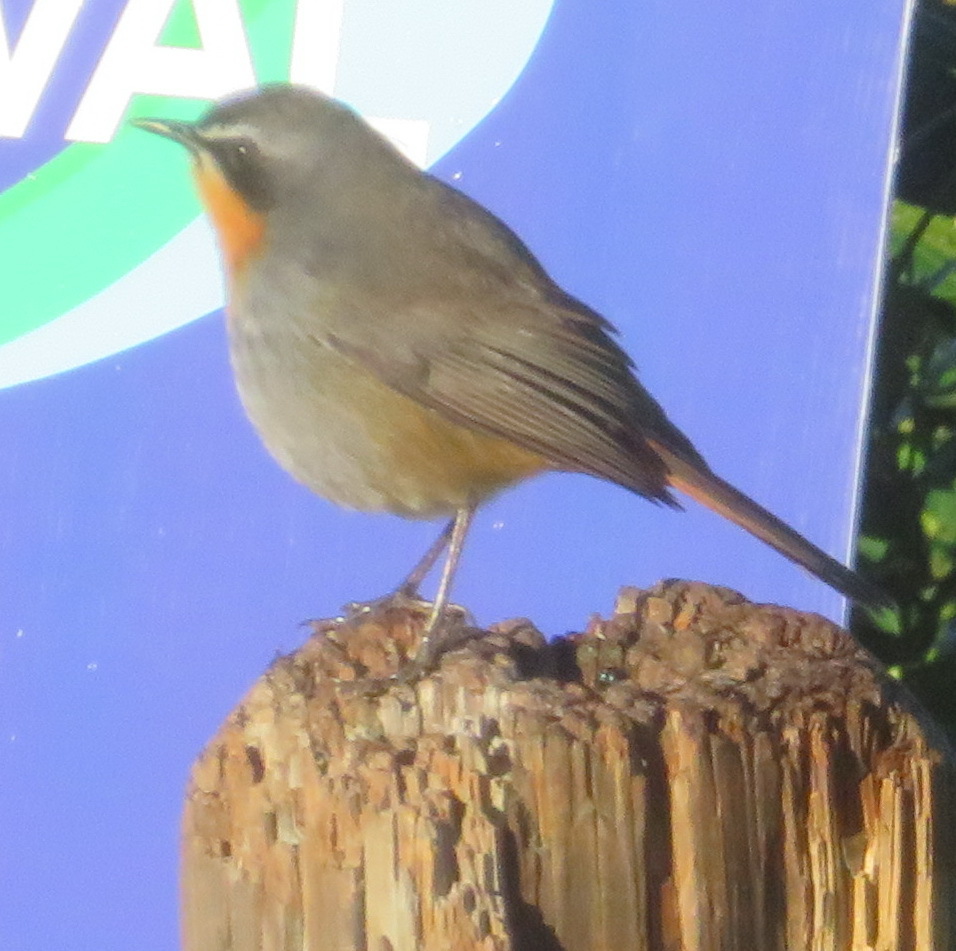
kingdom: Animalia
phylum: Chordata
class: Aves
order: Passeriformes
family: Muscicapidae
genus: Cossypha
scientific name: Cossypha caffra
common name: Cape robin-chat
